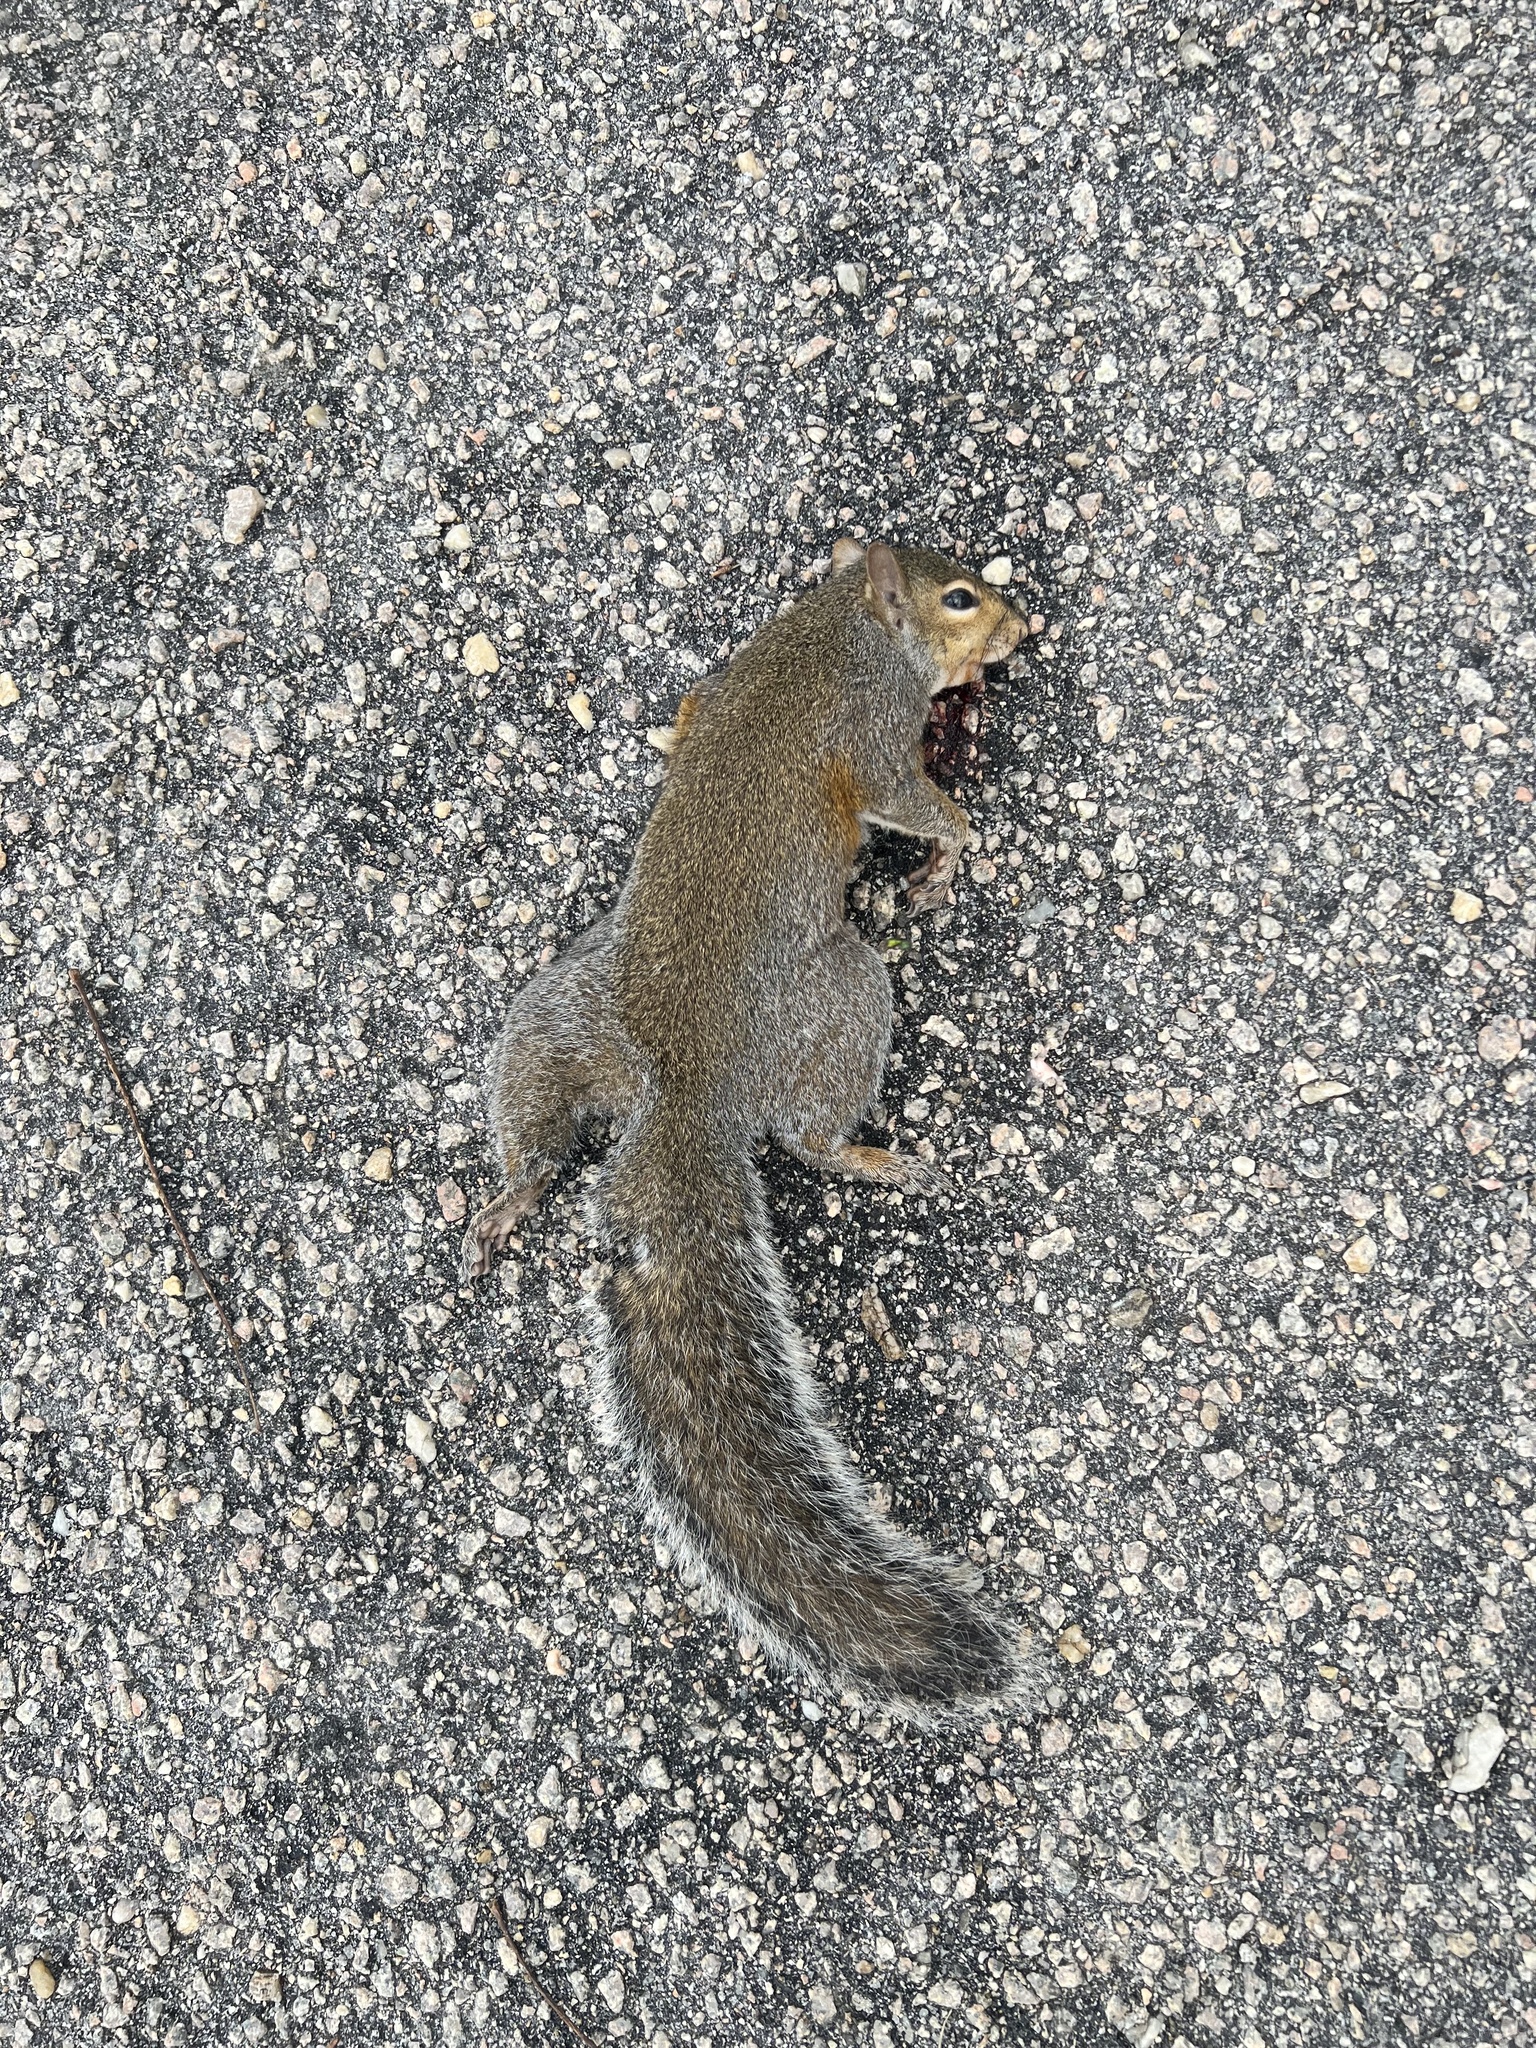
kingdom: Animalia
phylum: Chordata
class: Mammalia
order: Rodentia
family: Sciuridae
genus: Sciurus
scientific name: Sciurus carolinensis
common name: Eastern gray squirrel
